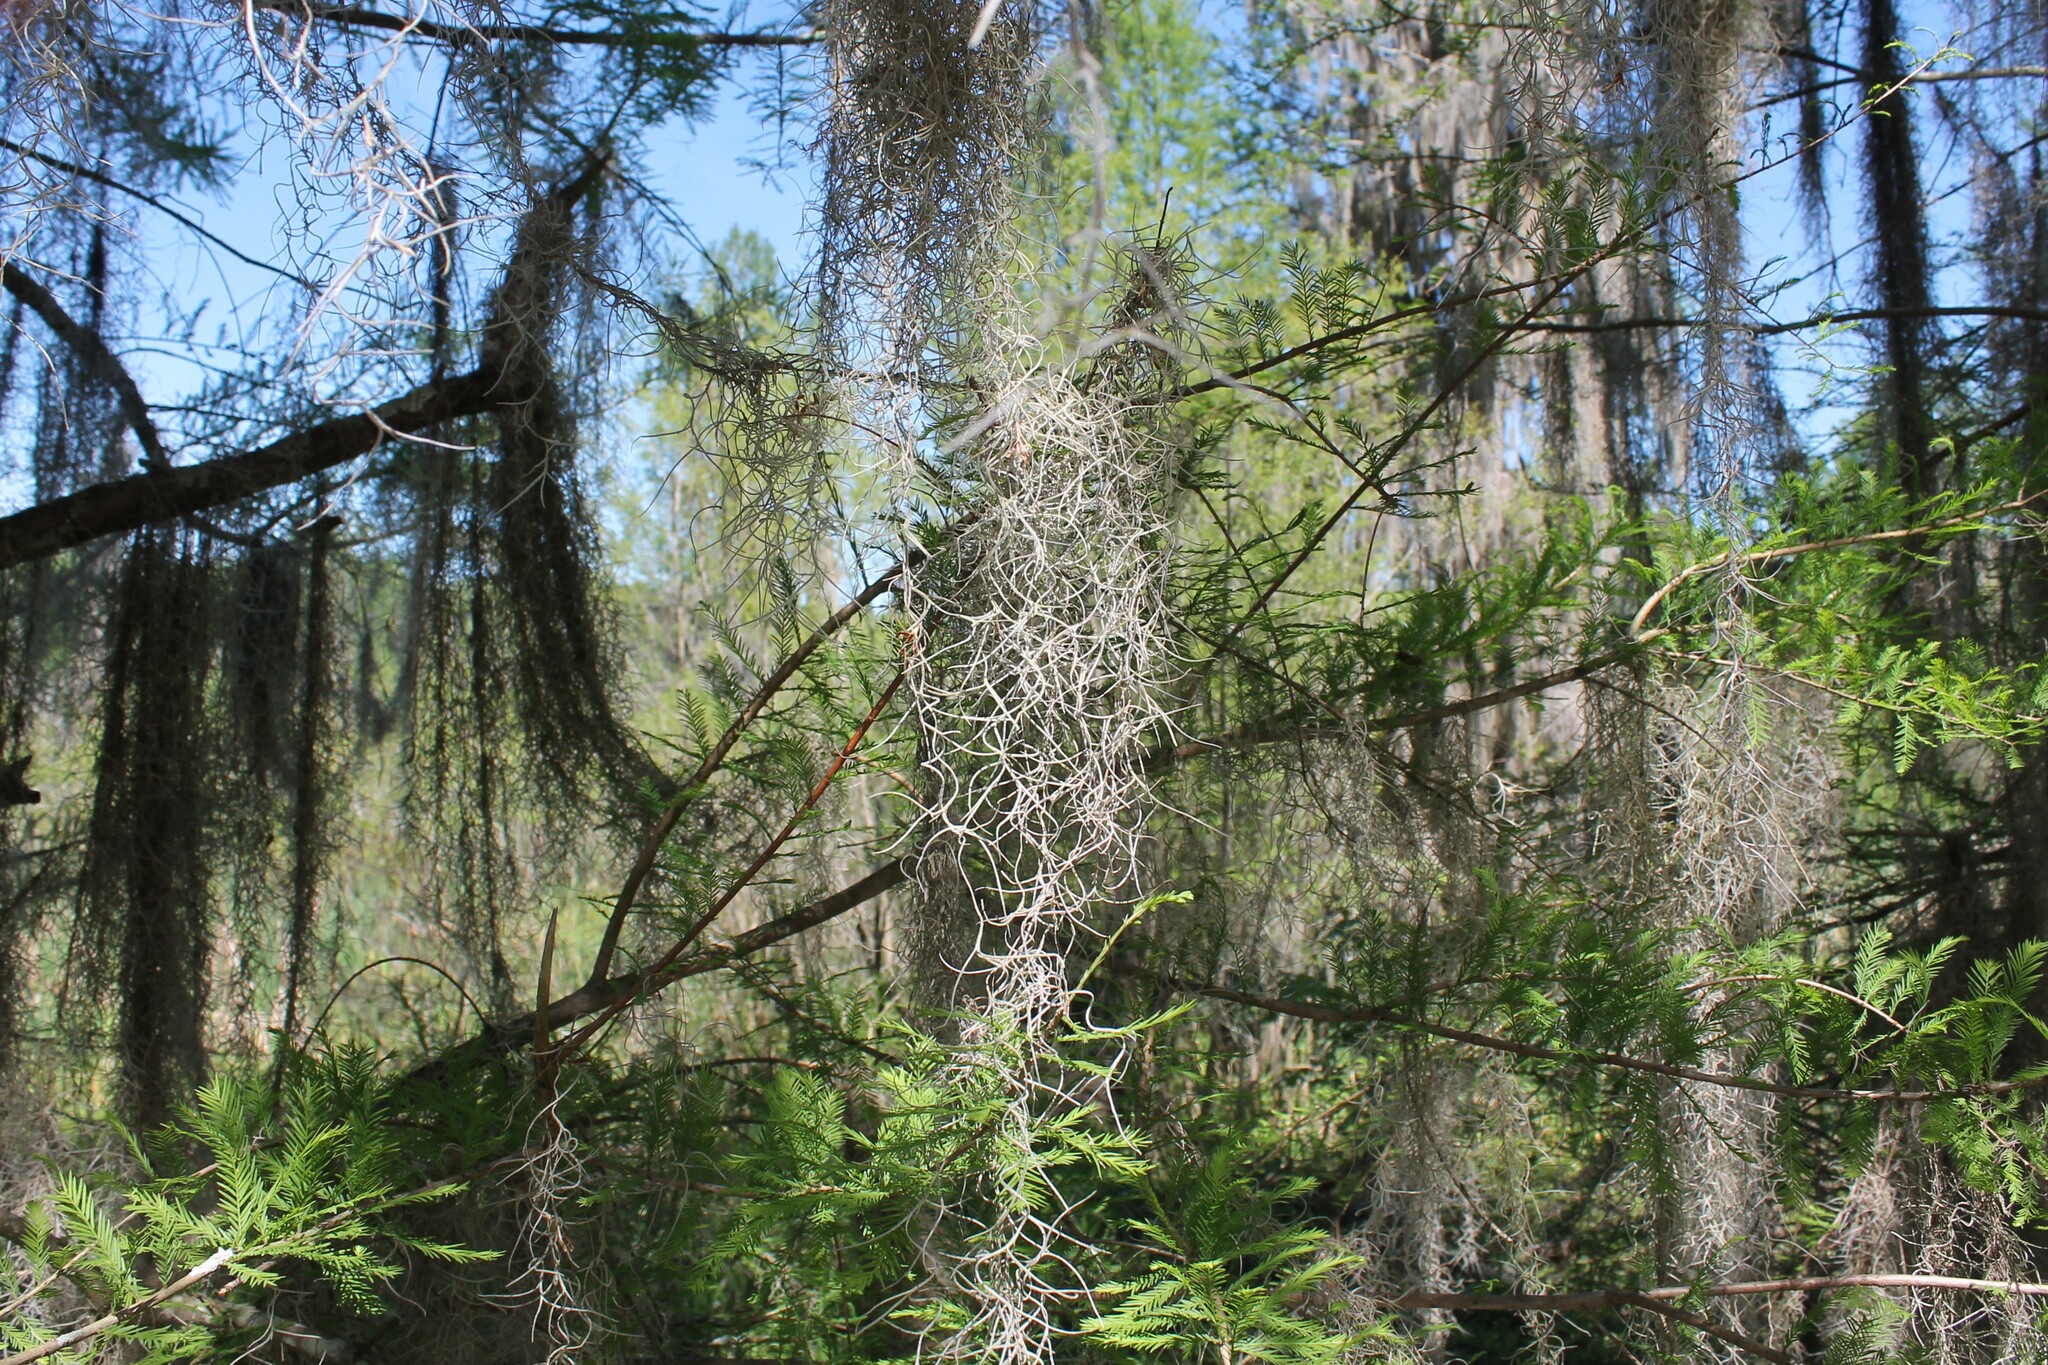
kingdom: Plantae
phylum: Tracheophyta
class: Liliopsida
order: Poales
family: Bromeliaceae
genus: Tillandsia
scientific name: Tillandsia usneoides
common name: Spanish moss
